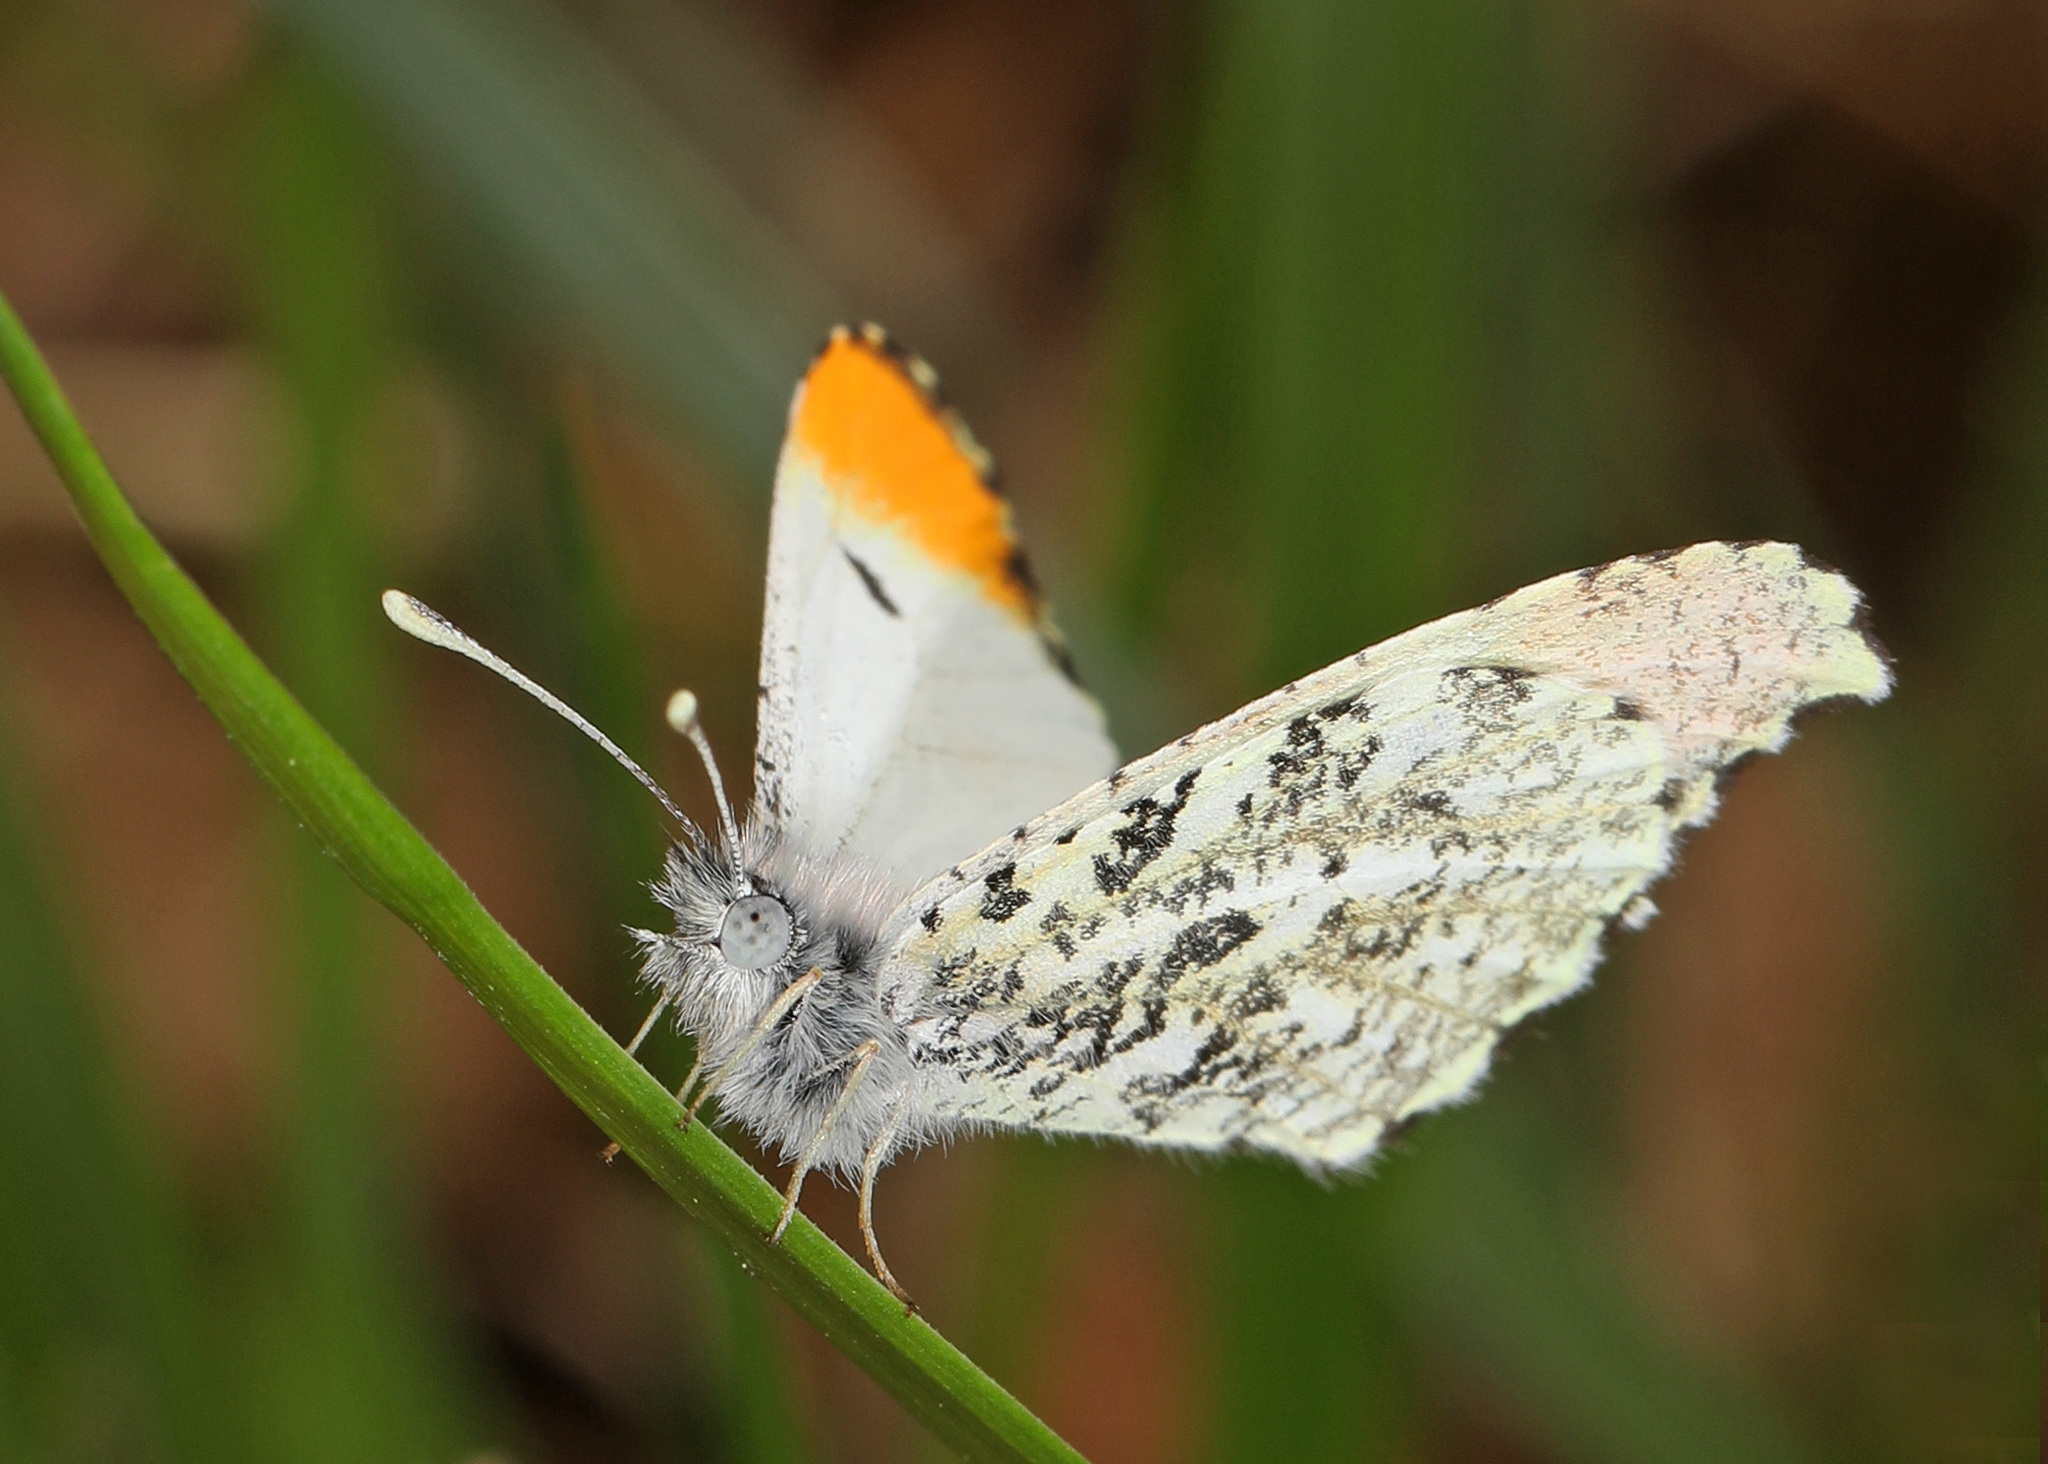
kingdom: Animalia
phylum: Arthropoda
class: Insecta
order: Lepidoptera
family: Pieridae
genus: Anthocharis
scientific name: Anthocharis midea
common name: Falcate orangetip
